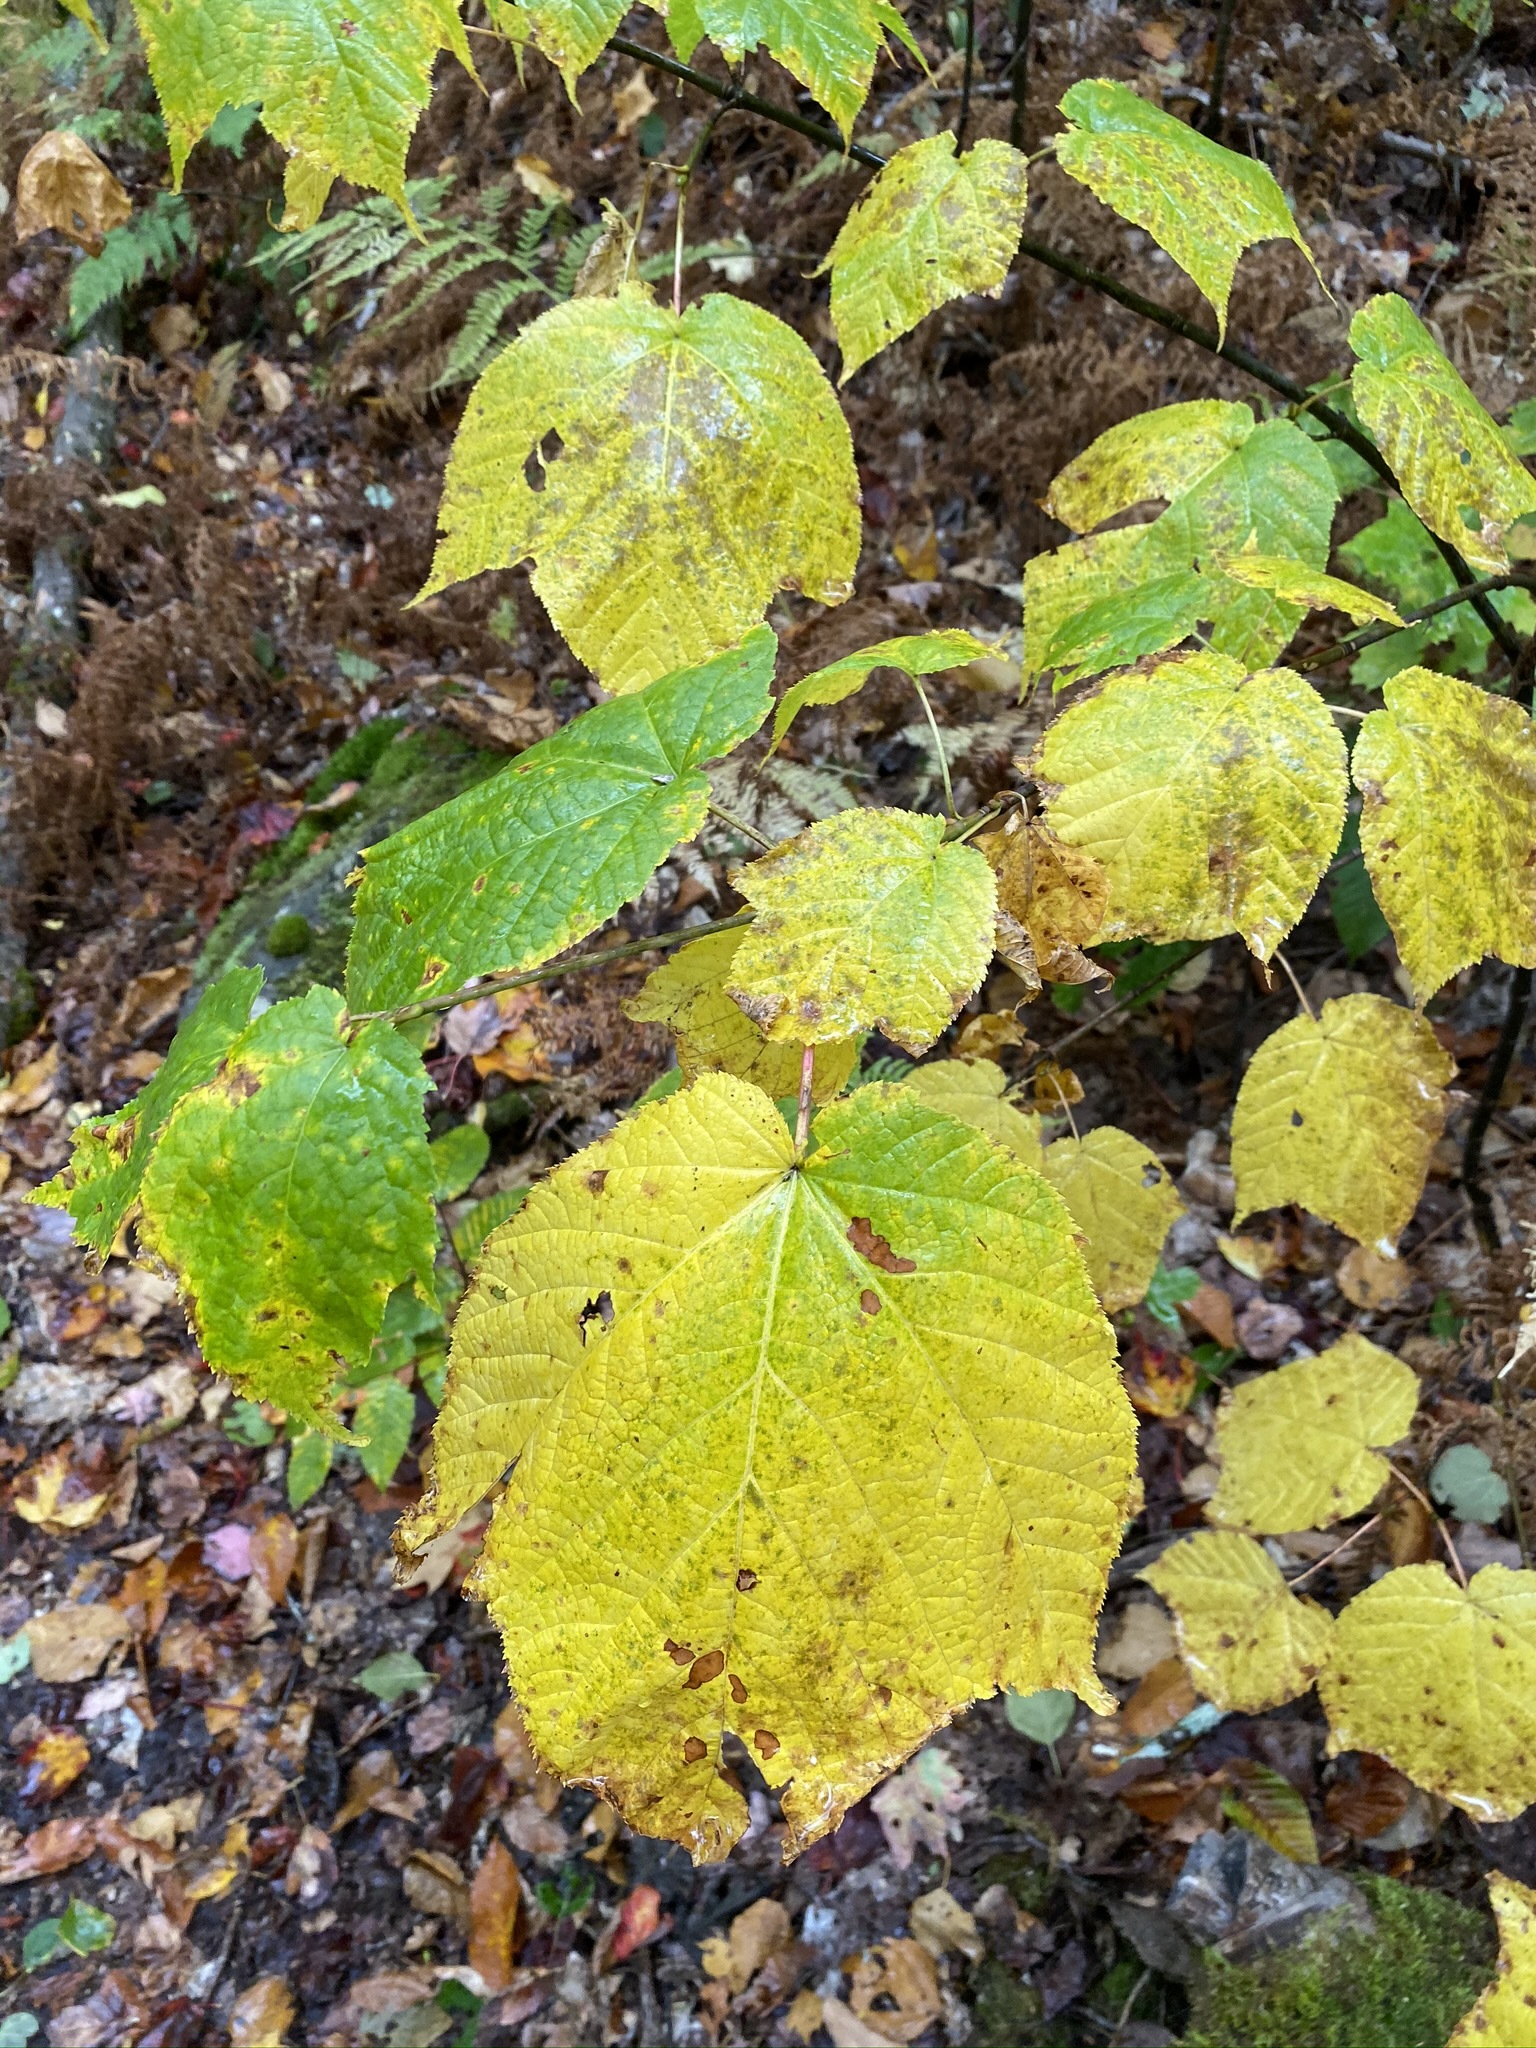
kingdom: Plantae
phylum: Tracheophyta
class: Magnoliopsida
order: Sapindales
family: Sapindaceae
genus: Acer
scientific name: Acer pensylvanicum
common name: Moosewood
